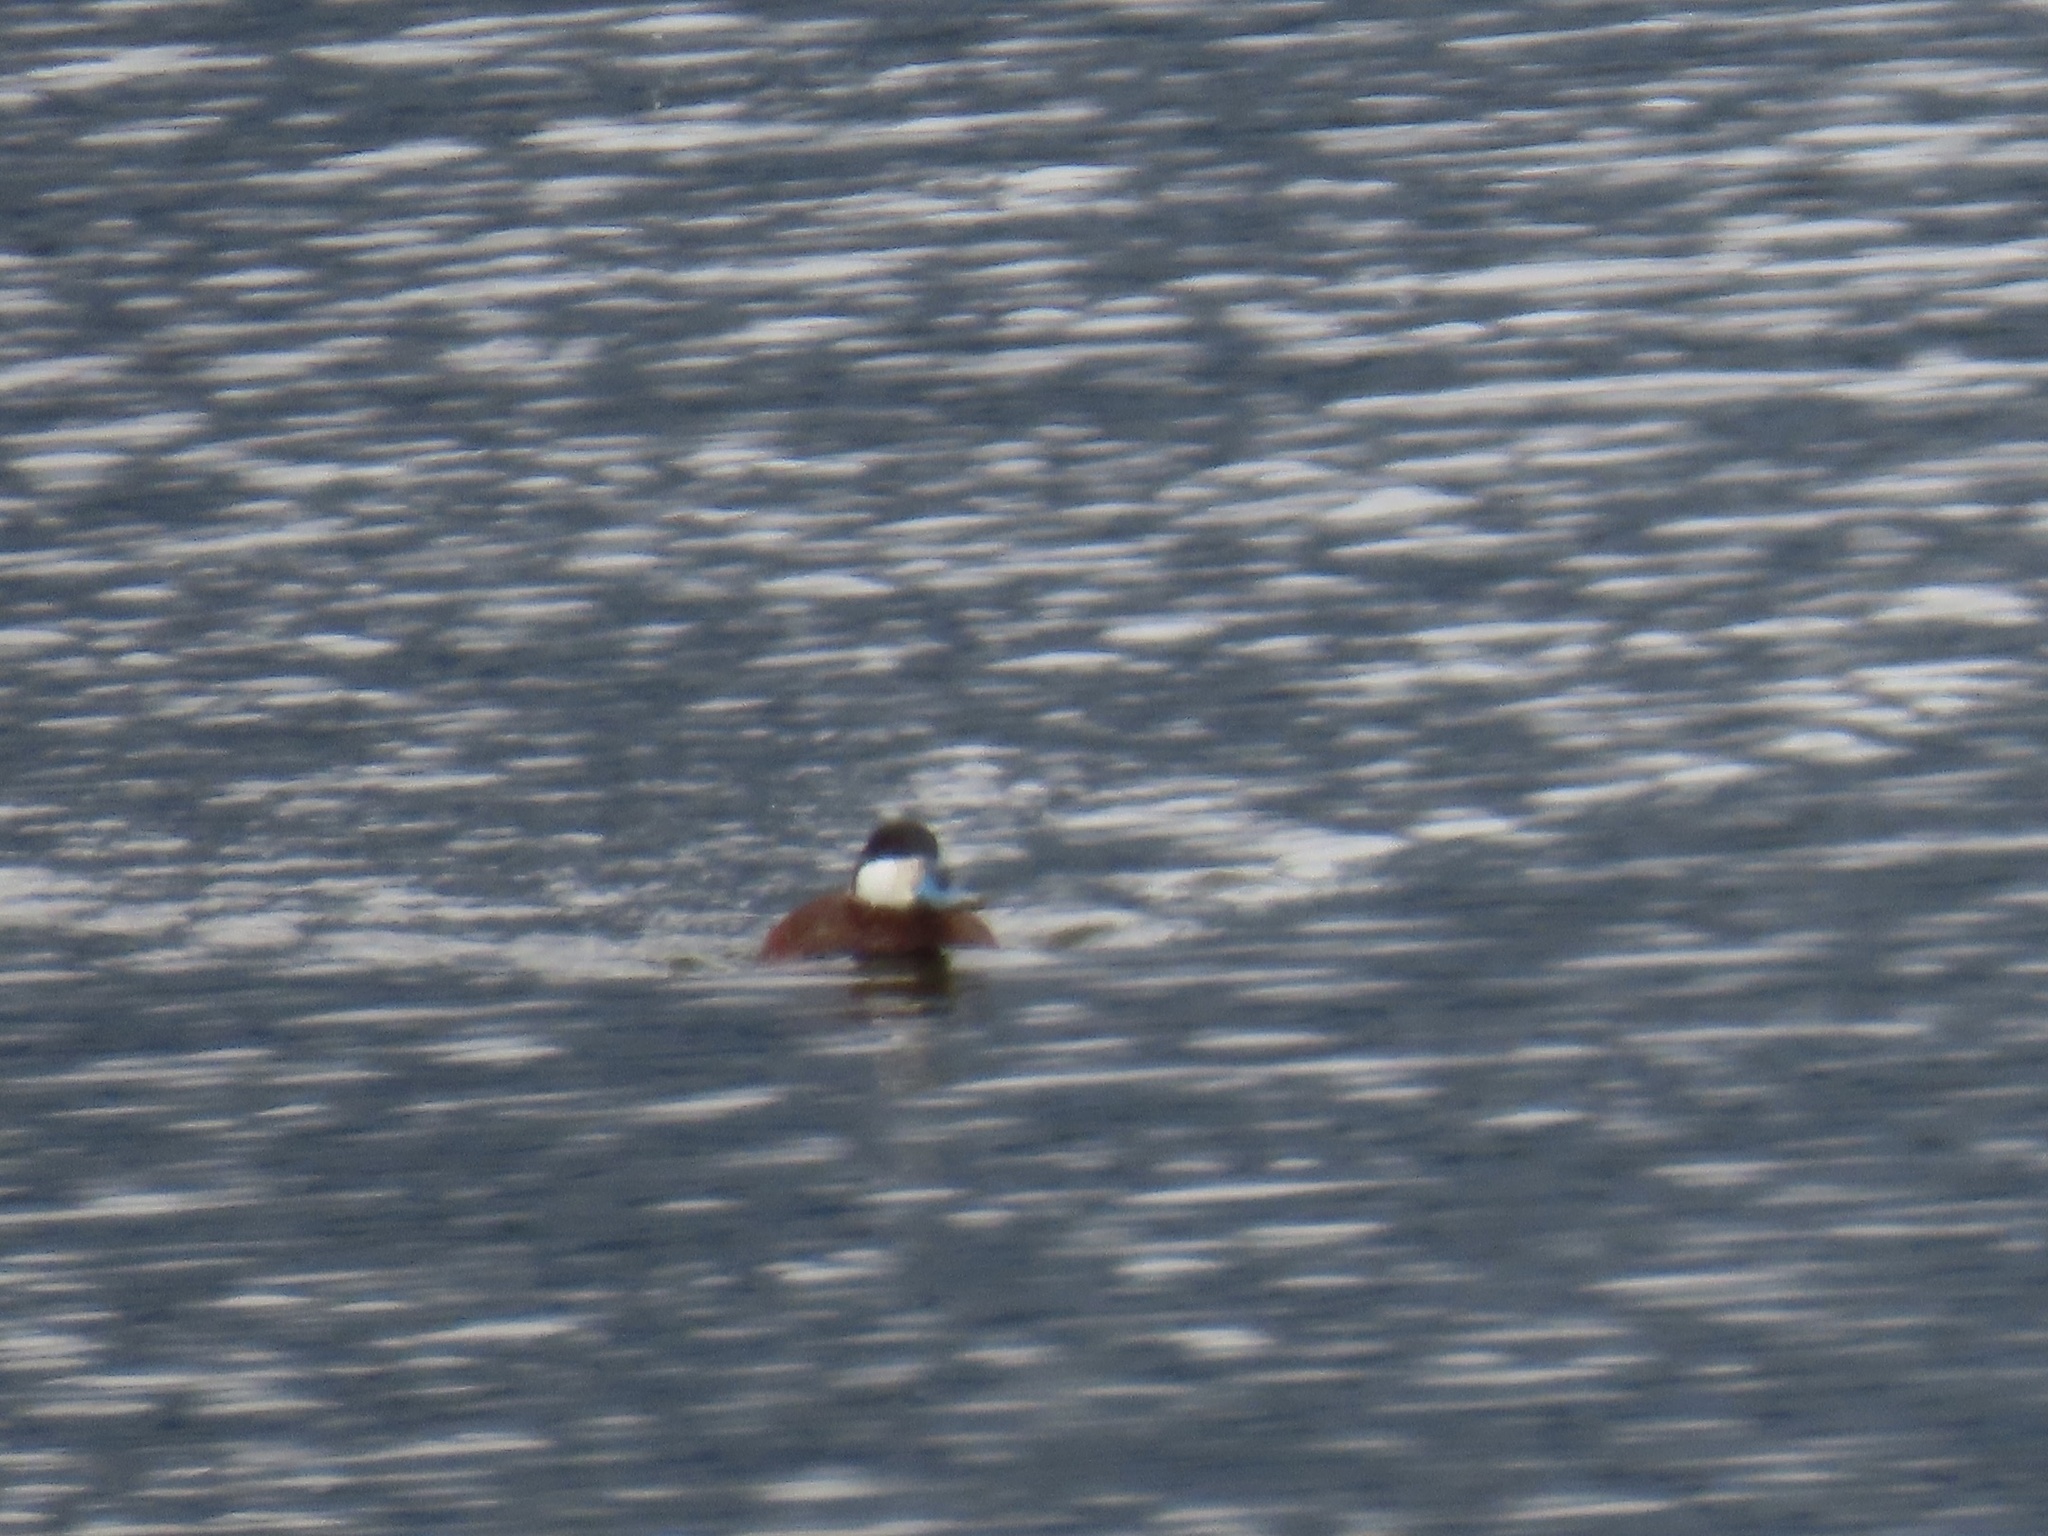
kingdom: Animalia
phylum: Chordata
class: Aves
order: Anseriformes
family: Anatidae
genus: Oxyura
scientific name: Oxyura jamaicensis
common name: Ruddy duck
